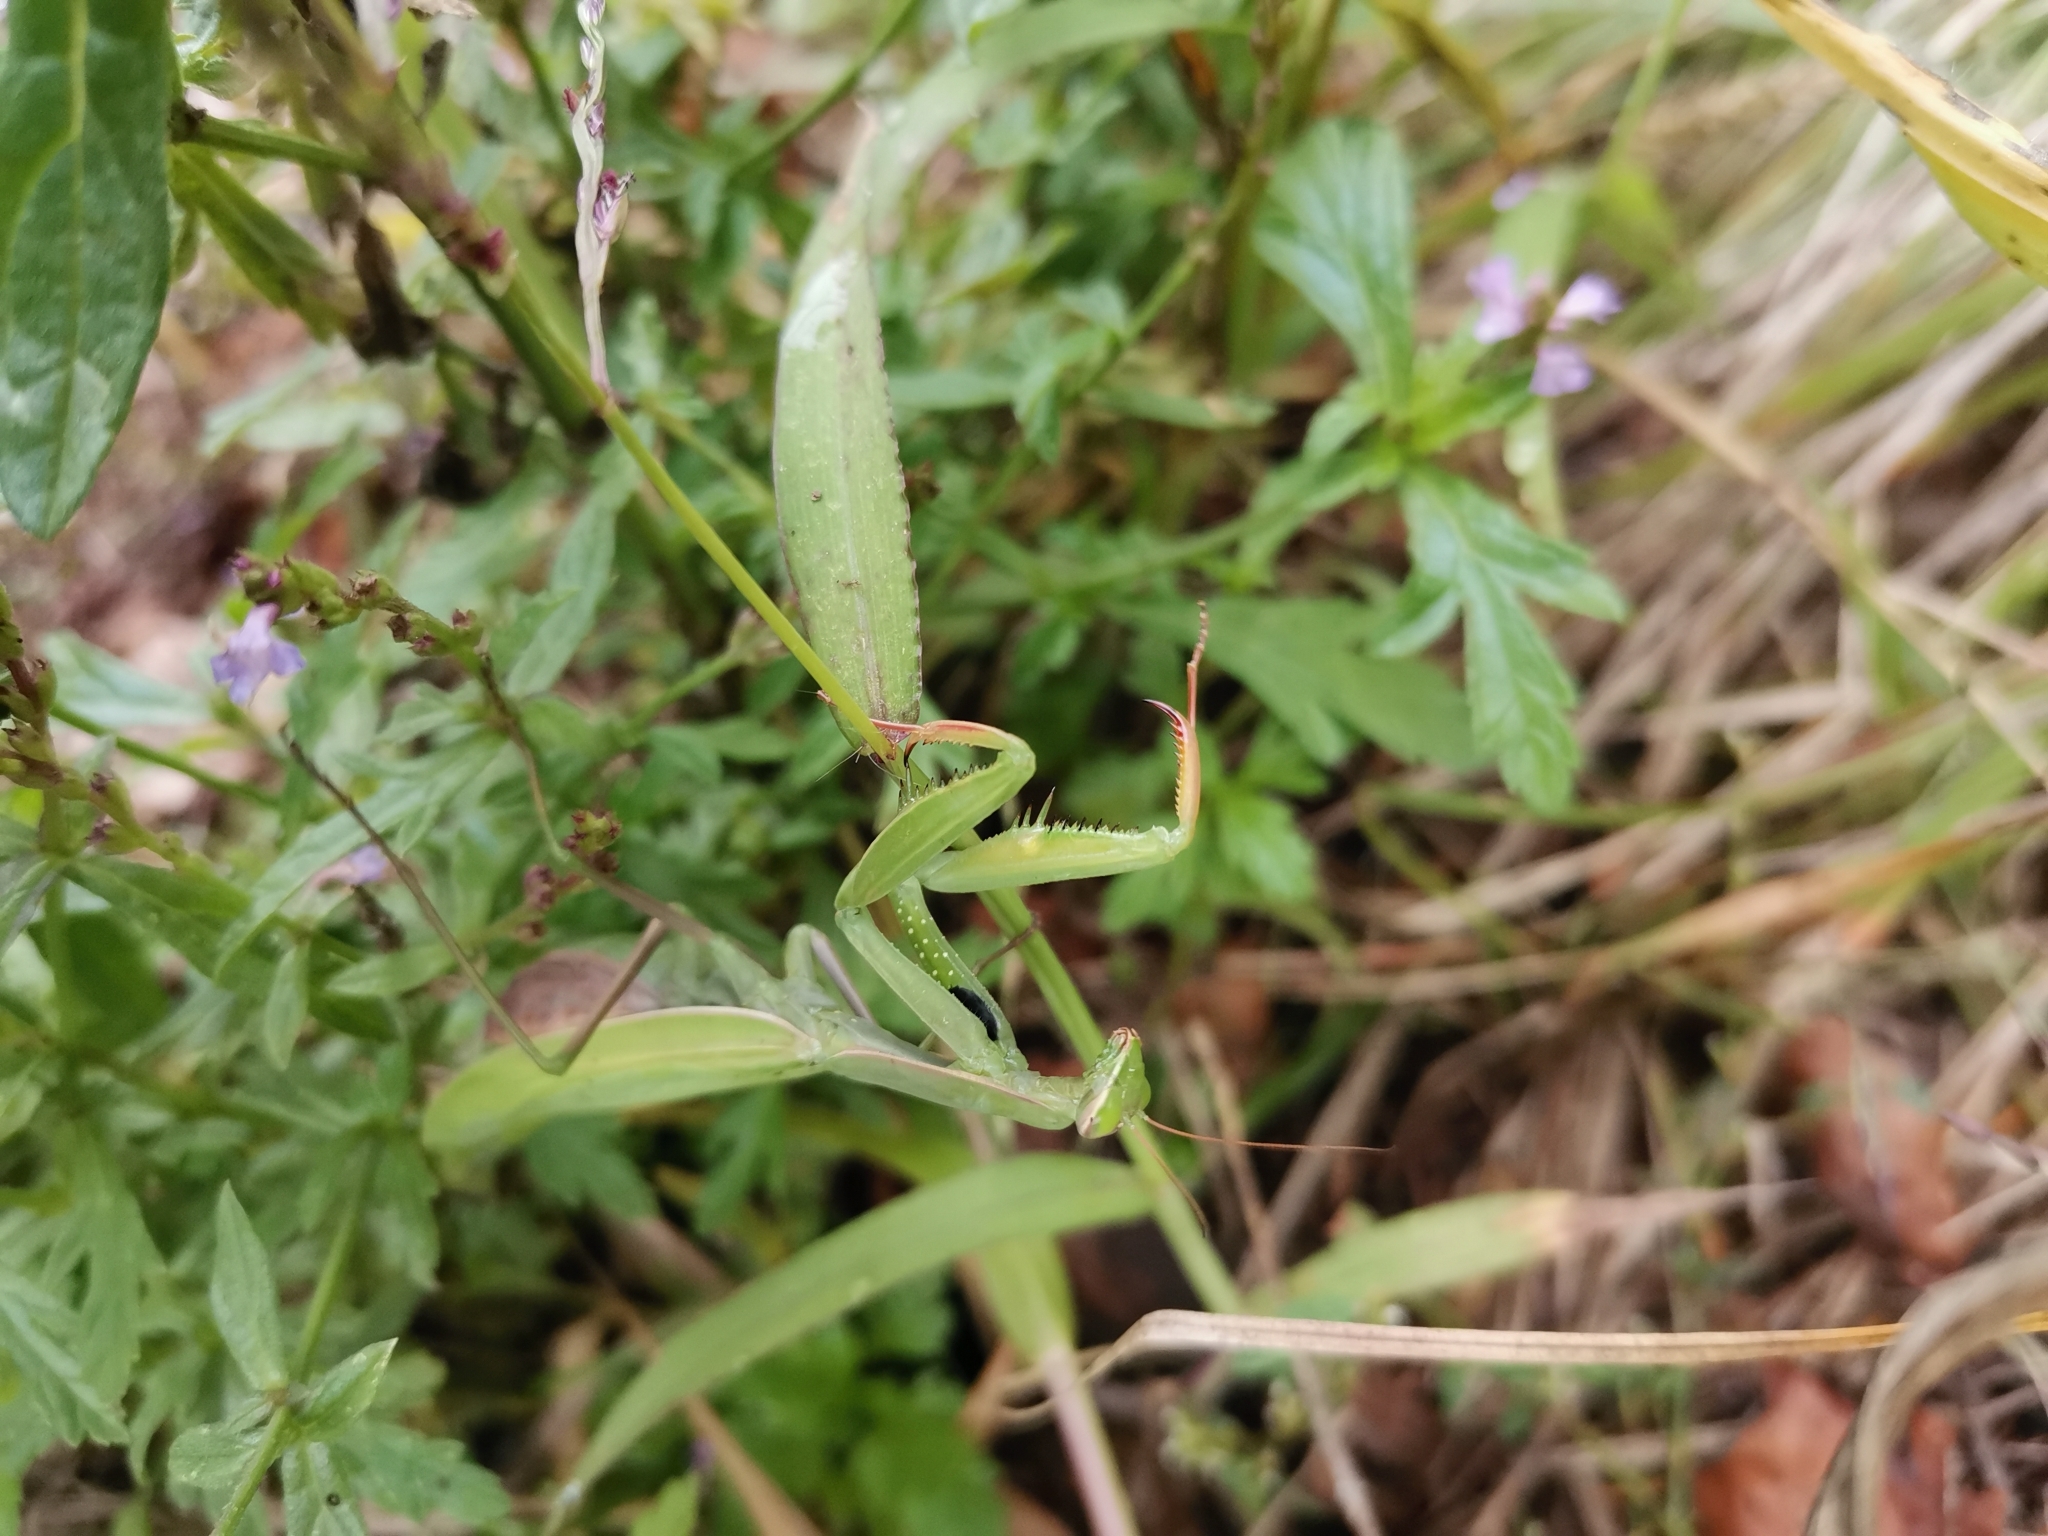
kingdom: Animalia
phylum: Arthropoda
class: Insecta
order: Mantodea
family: Mantidae
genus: Mantis
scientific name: Mantis religiosa
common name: Praying mantis
